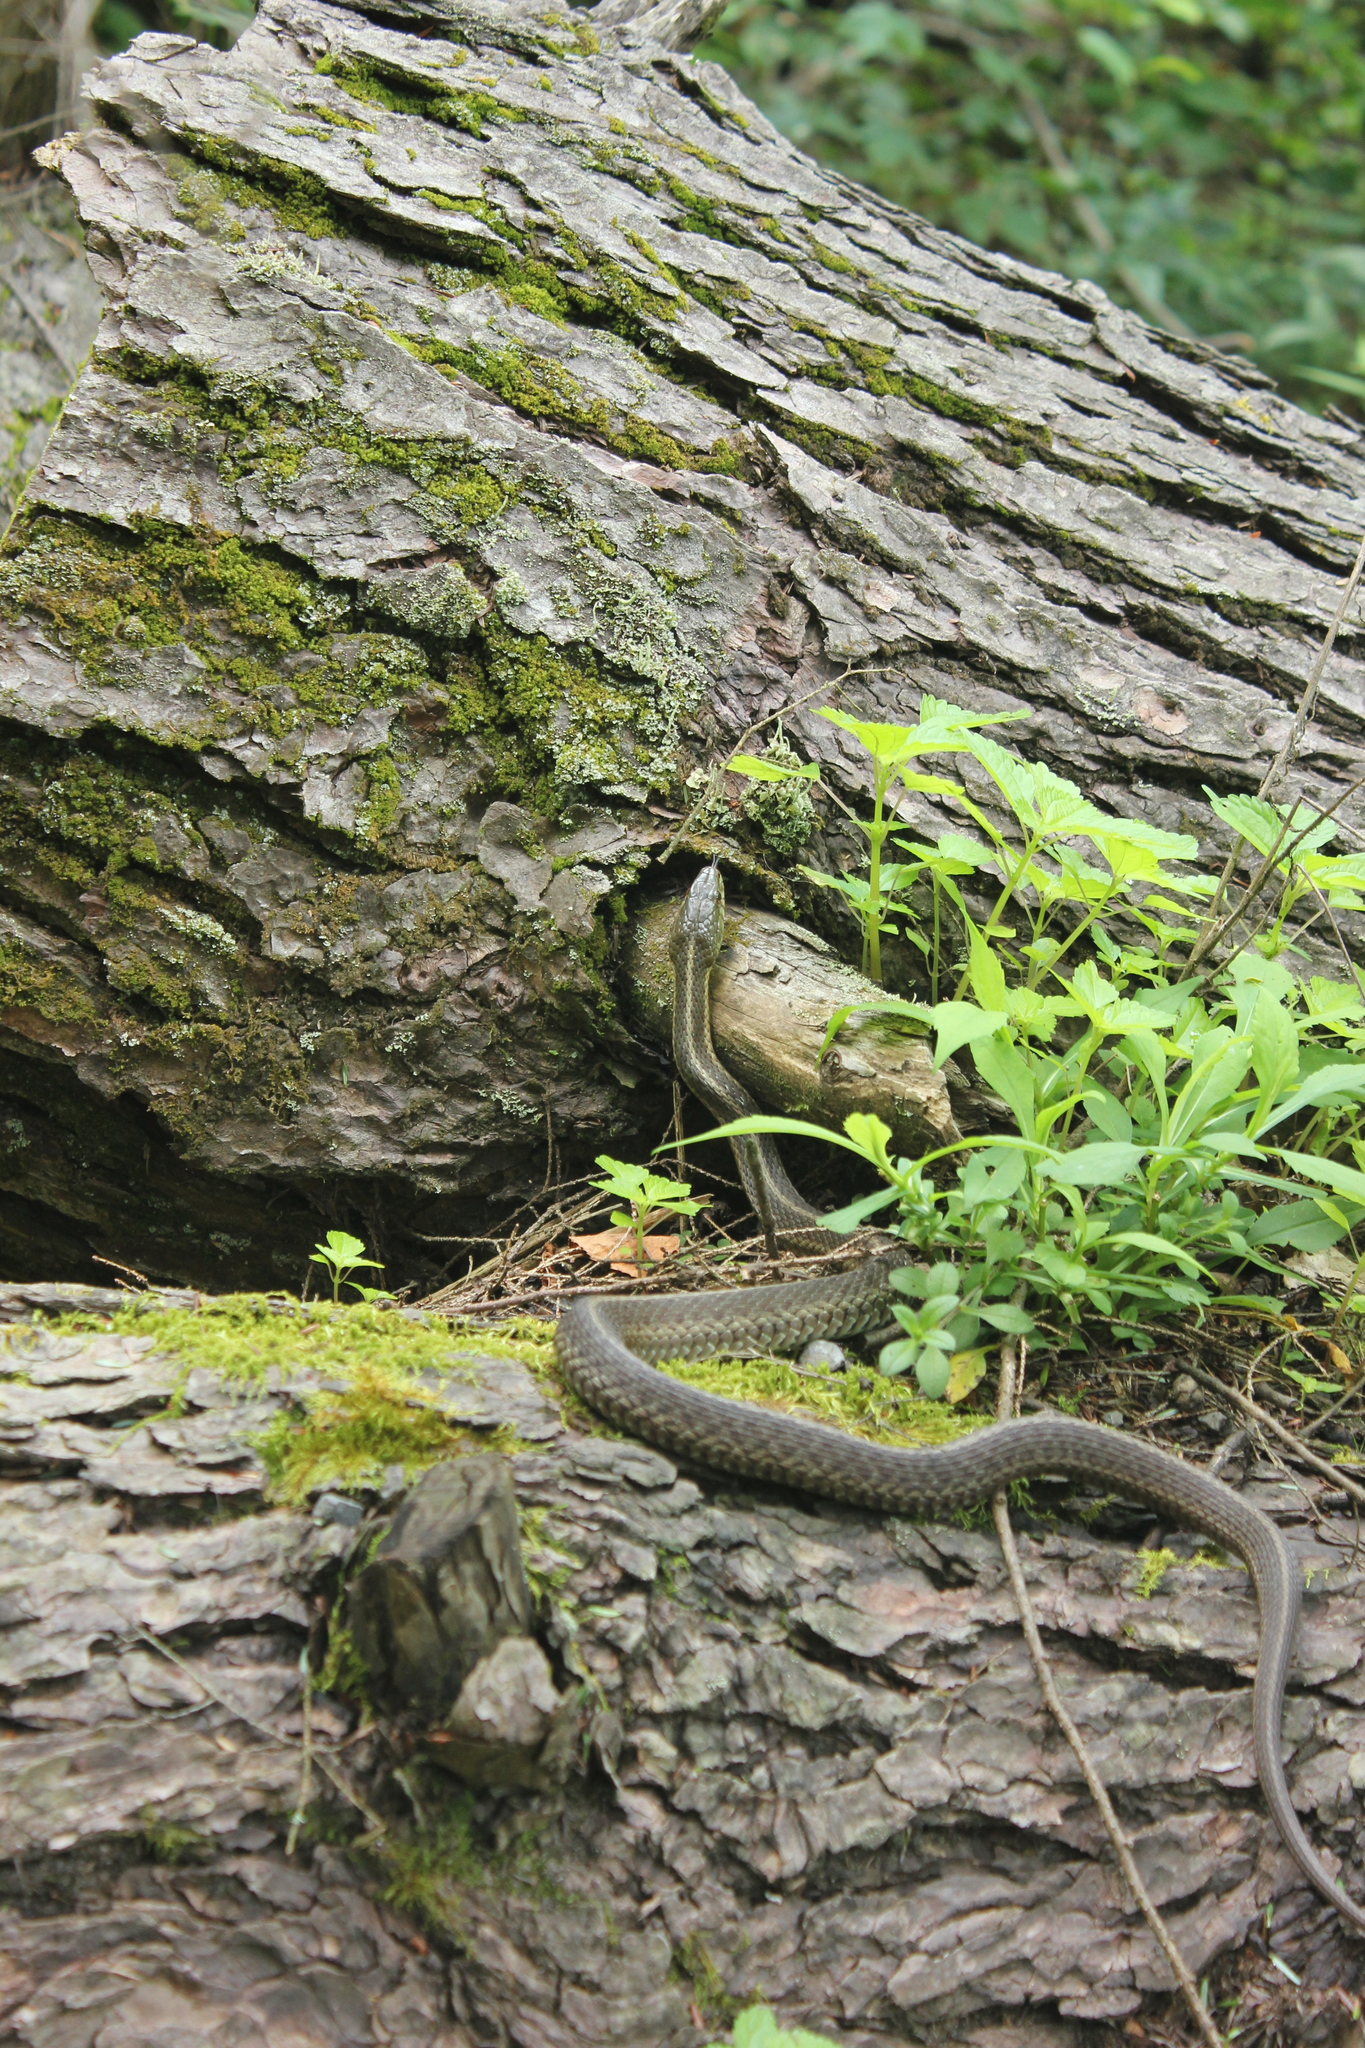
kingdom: Animalia
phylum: Chordata
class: Squamata
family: Colubridae
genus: Thamnophis
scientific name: Thamnophis sirtalis
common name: Common garter snake
